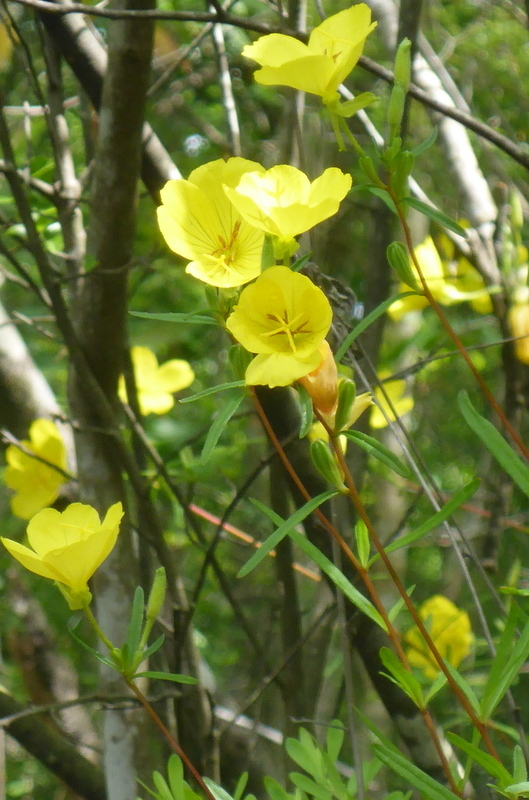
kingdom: Plantae
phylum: Tracheophyta
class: Magnoliopsida
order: Myrtales
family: Onagraceae
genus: Oenothera
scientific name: Oenothera fruticosa
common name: Southern sundrops
